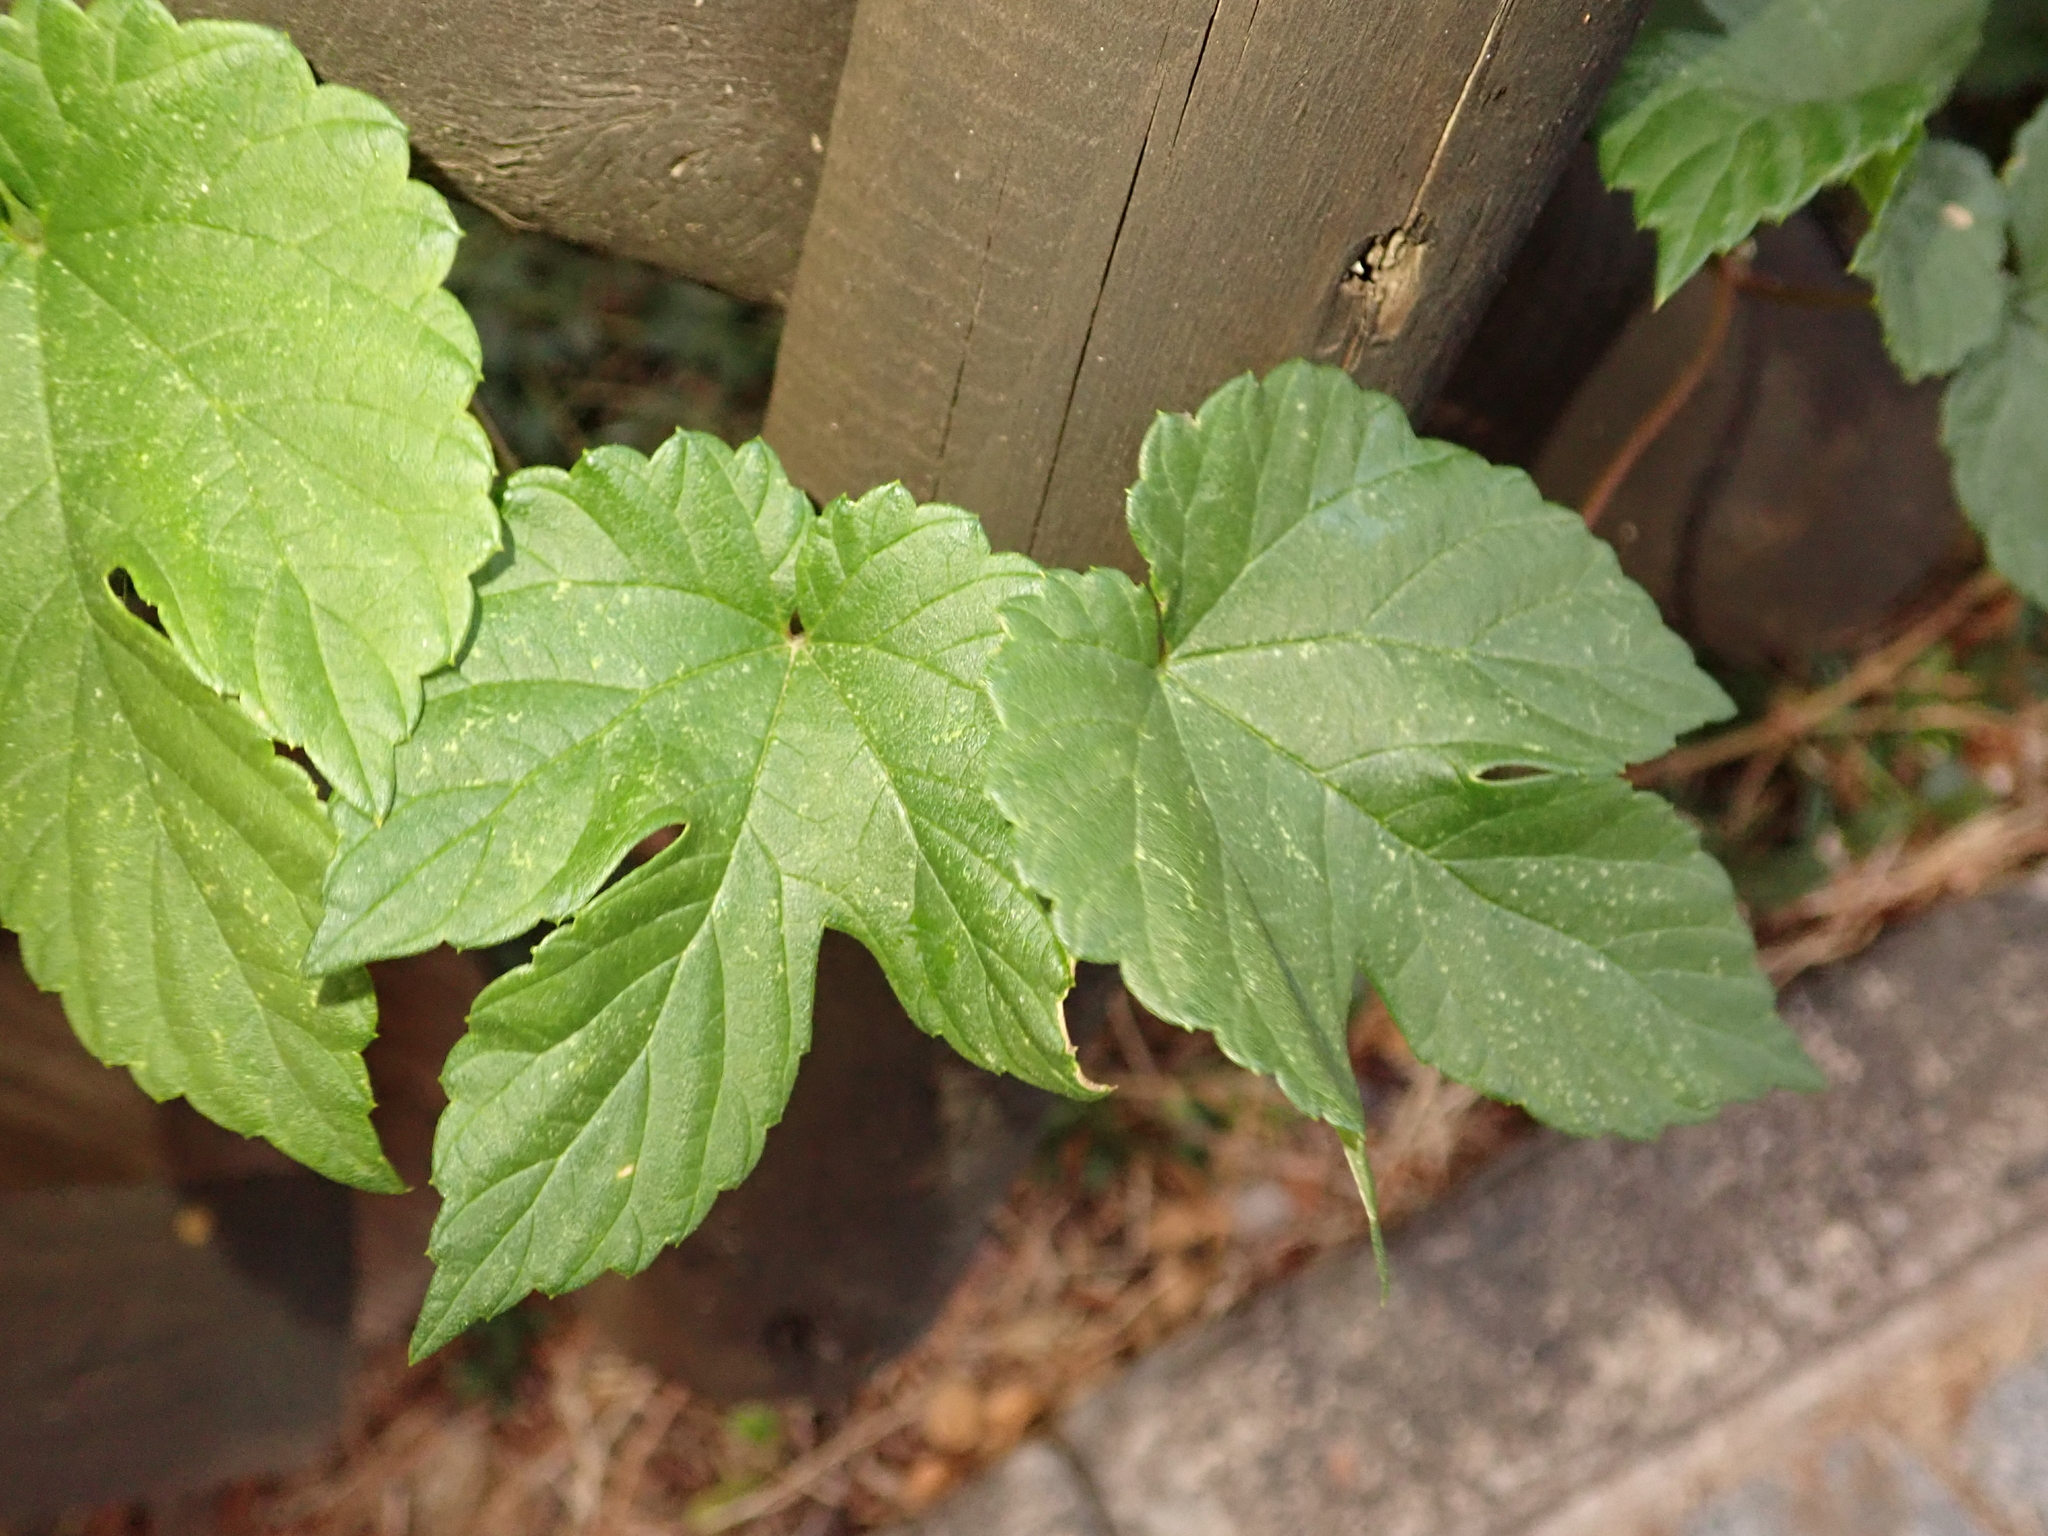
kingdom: Plantae
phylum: Tracheophyta
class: Magnoliopsida
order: Rosales
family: Cannabaceae
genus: Humulus
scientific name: Humulus lupulus
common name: Hop
